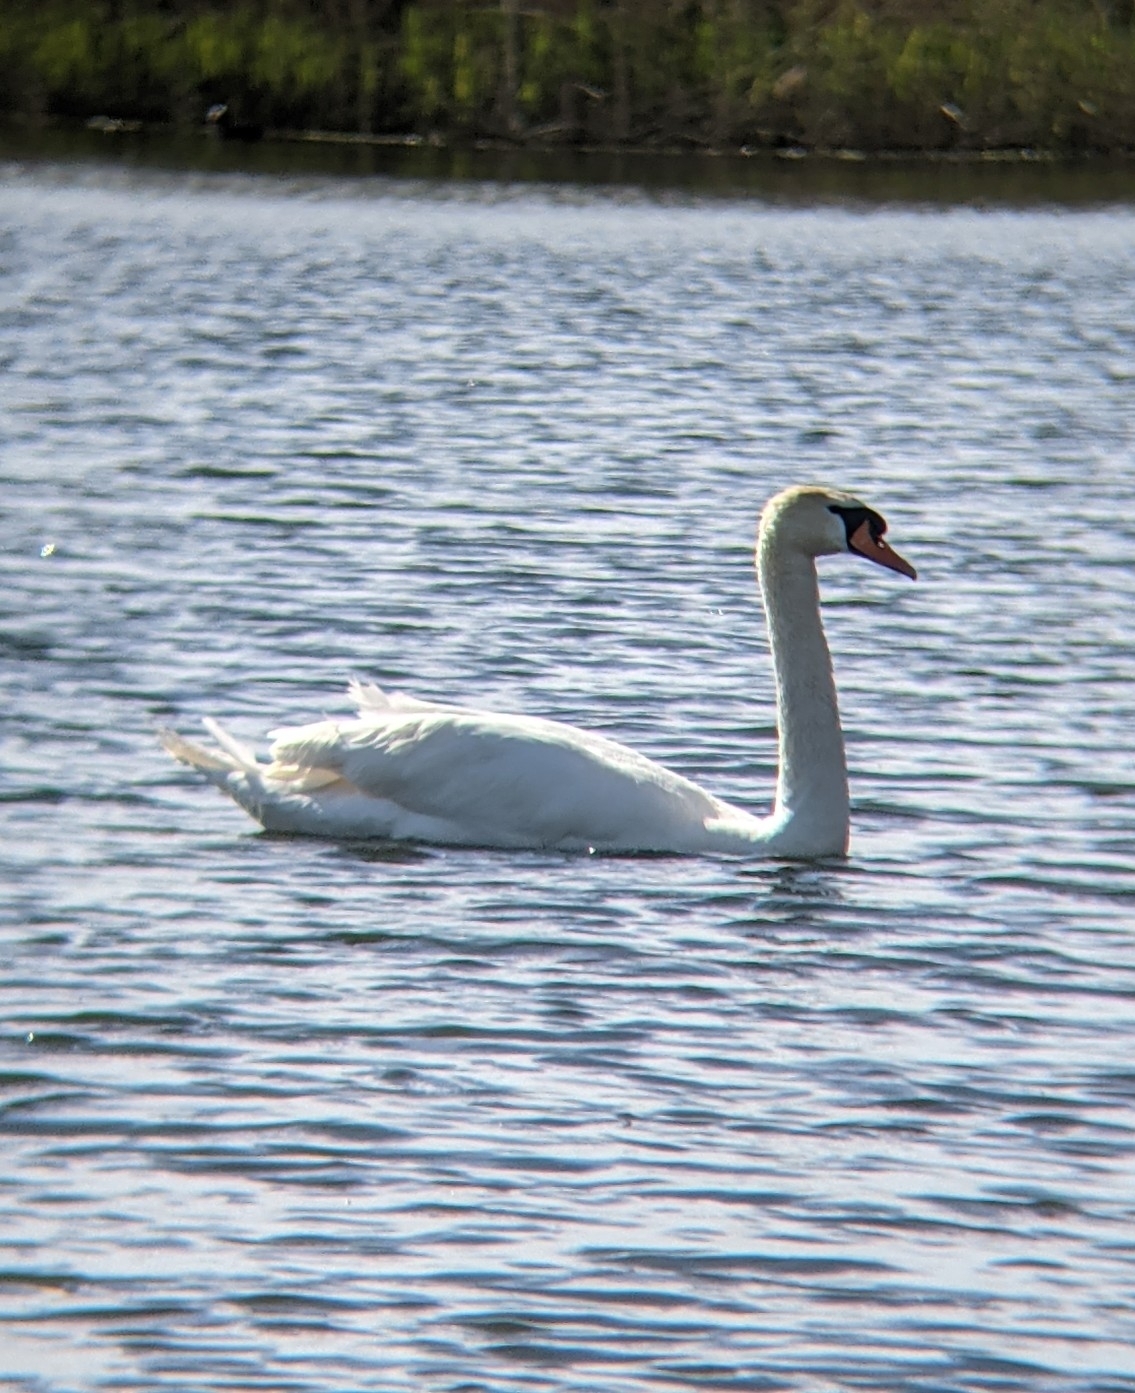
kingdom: Animalia
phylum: Chordata
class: Aves
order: Anseriformes
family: Anatidae
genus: Cygnus
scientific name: Cygnus olor
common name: Mute swan
